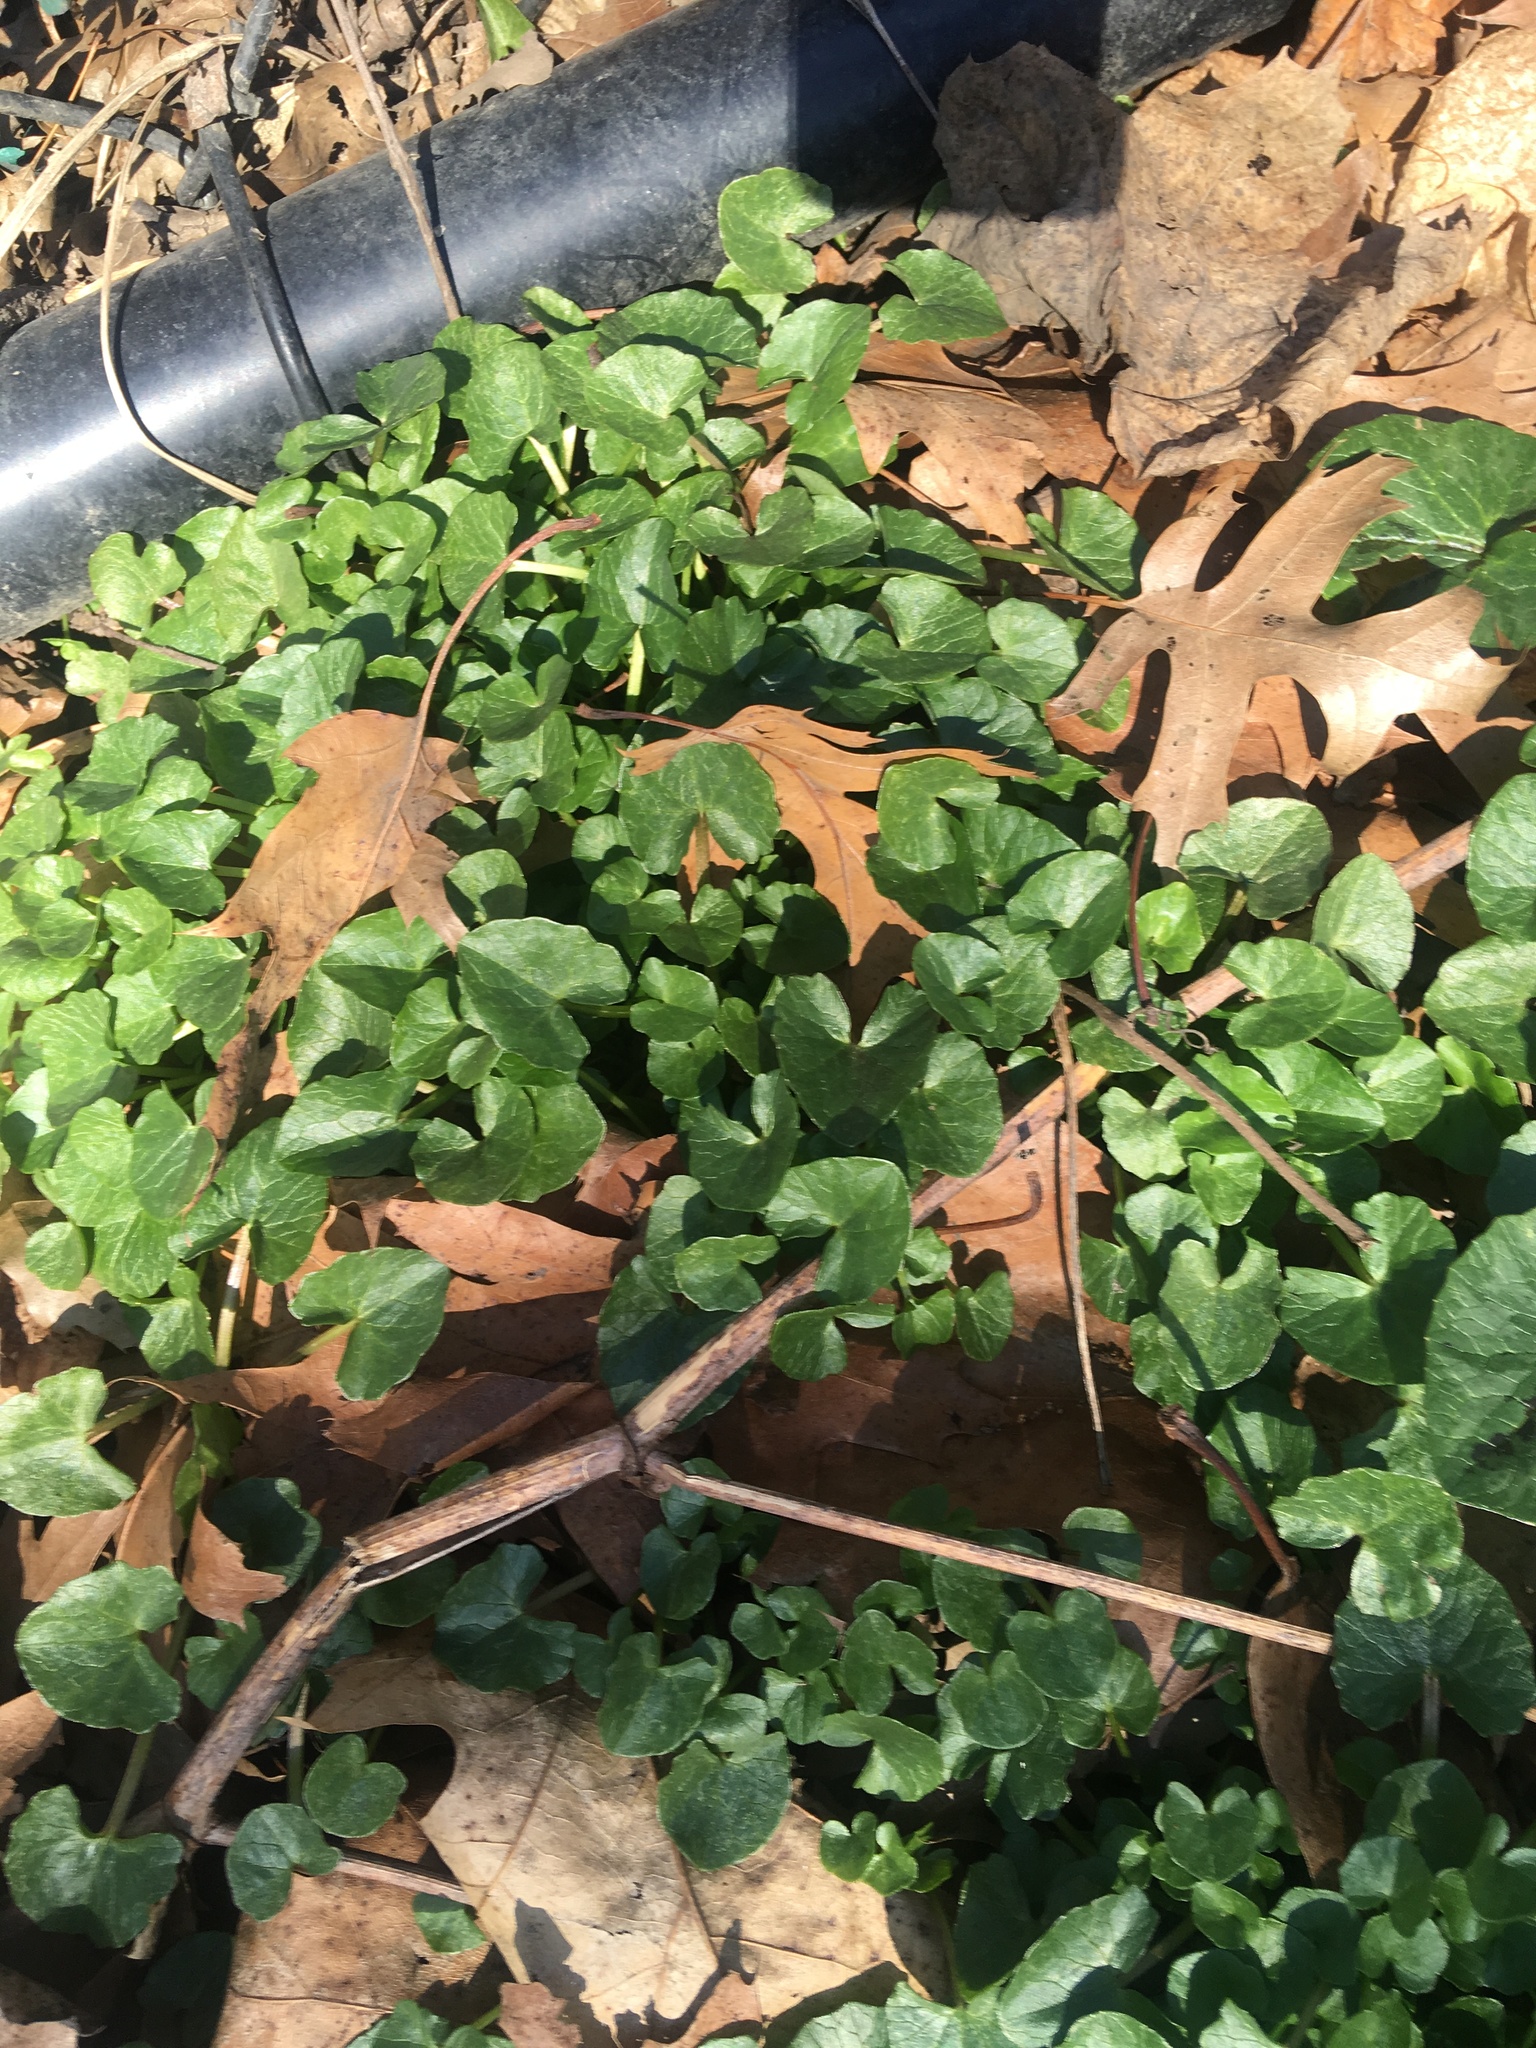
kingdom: Plantae
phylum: Tracheophyta
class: Magnoliopsida
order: Ranunculales
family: Ranunculaceae
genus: Ficaria
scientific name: Ficaria verna
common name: Lesser celandine
